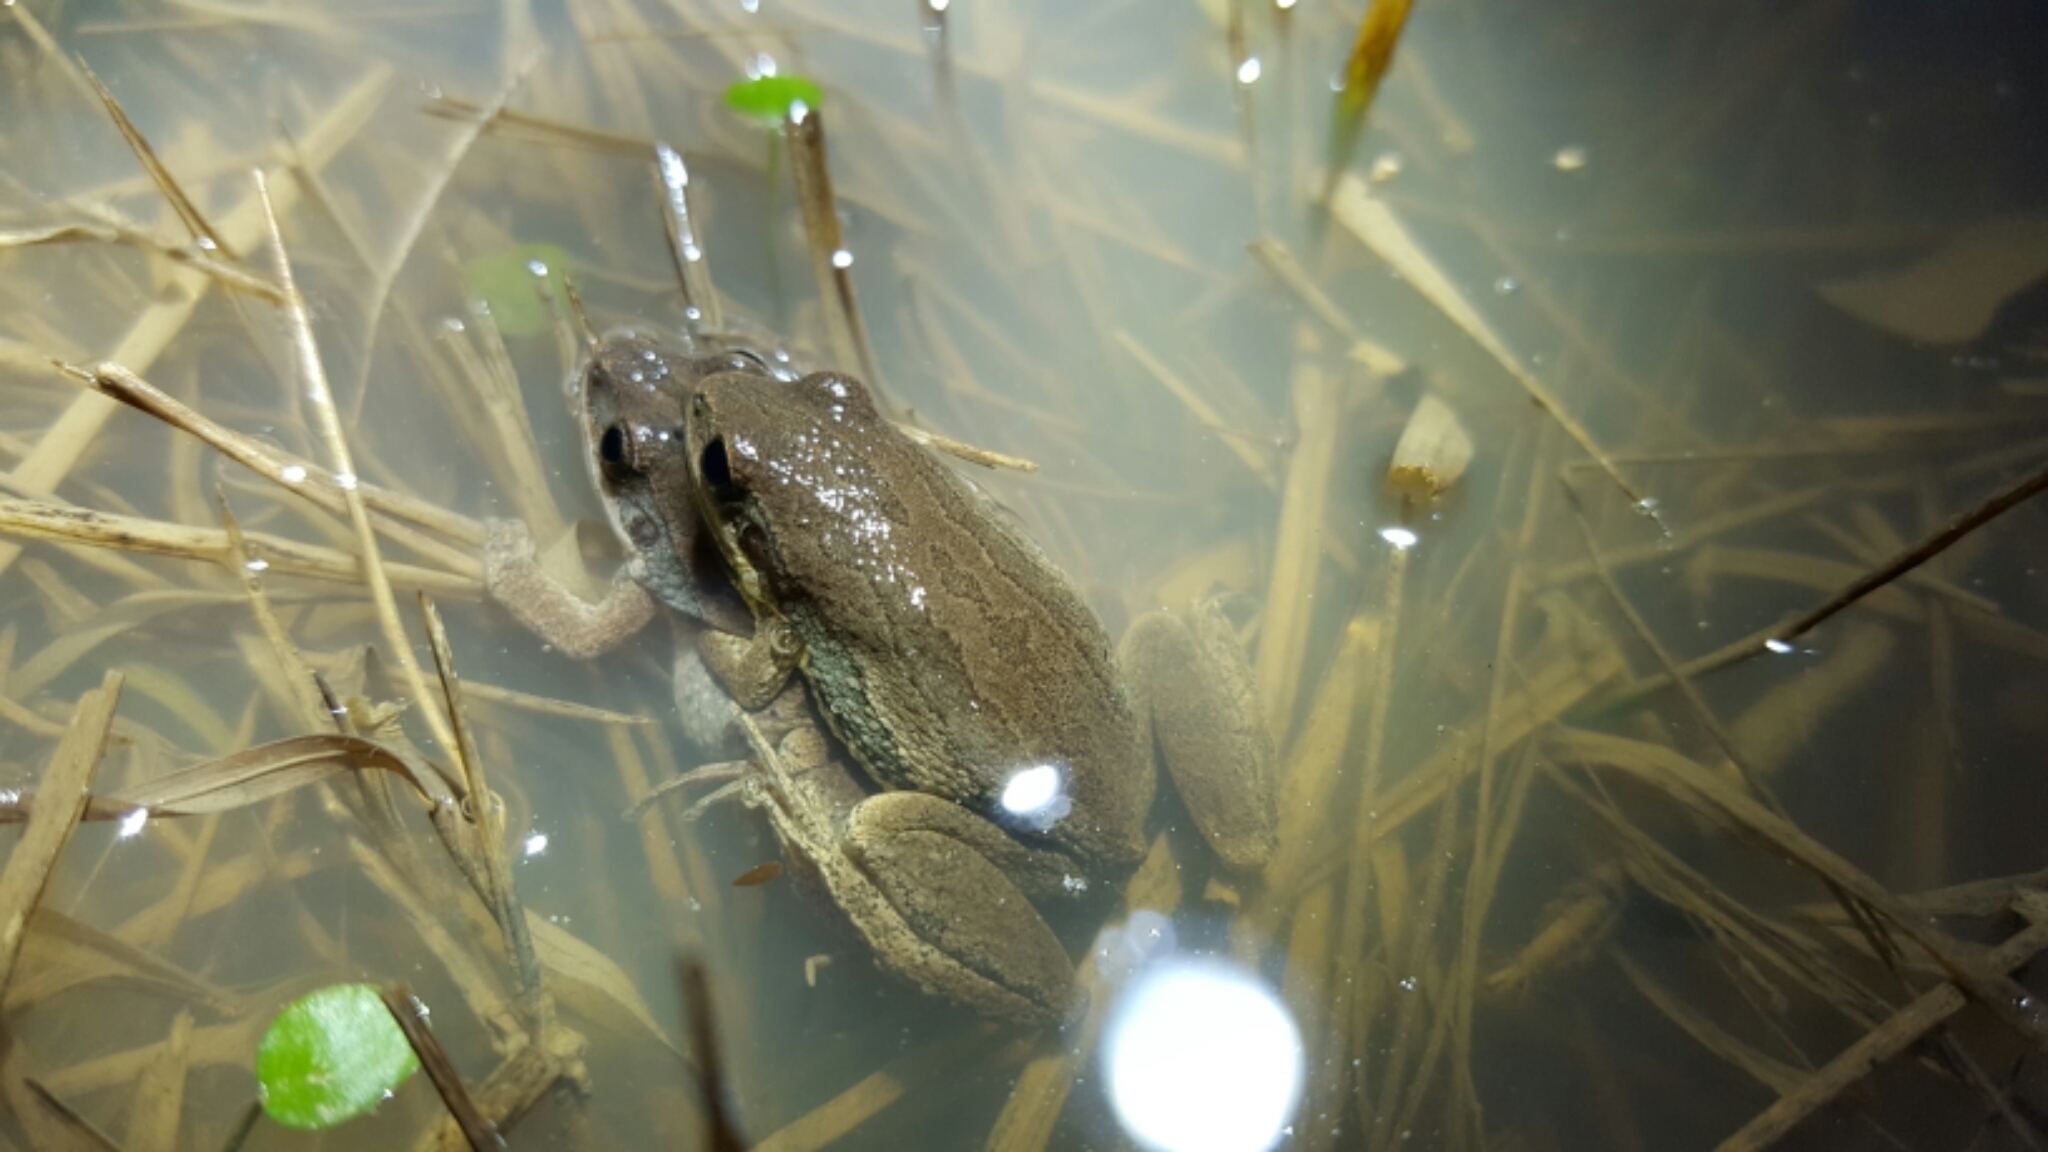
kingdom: Animalia
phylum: Chordata
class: Amphibia
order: Anura
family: Hylidae
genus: Pseudacris
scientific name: Pseudacris fouquettei
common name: Cajun chorus frog
